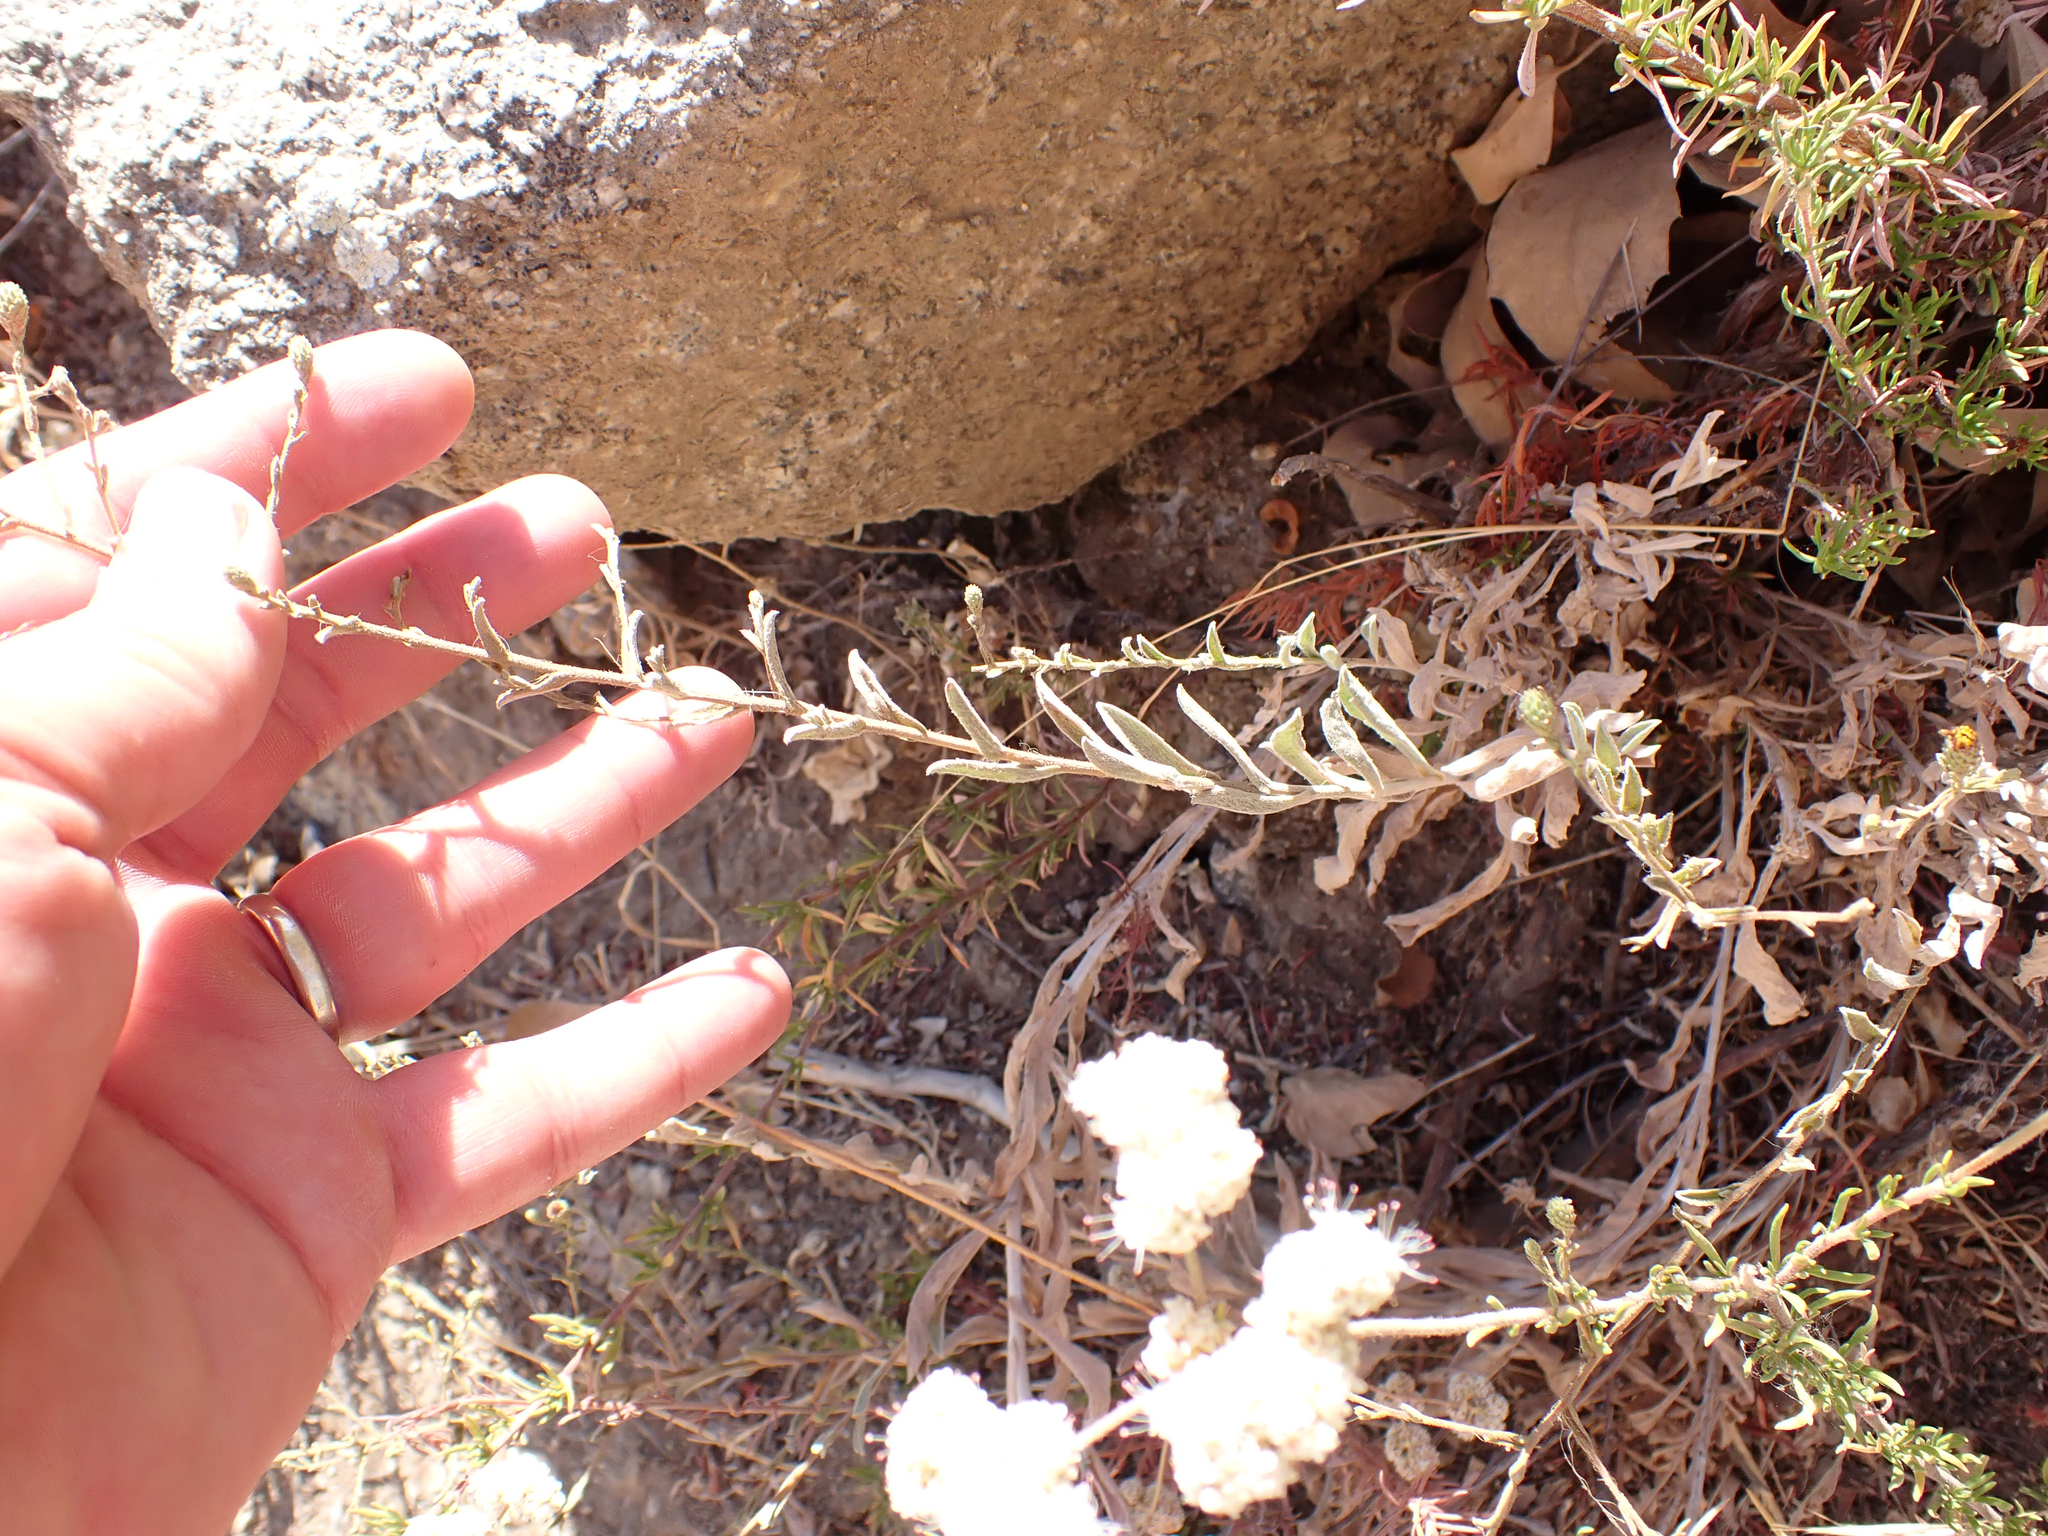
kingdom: Plantae
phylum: Tracheophyta
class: Magnoliopsida
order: Asterales
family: Asteraceae
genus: Corethrogyne
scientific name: Corethrogyne filaginifolia
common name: Sand-aster
